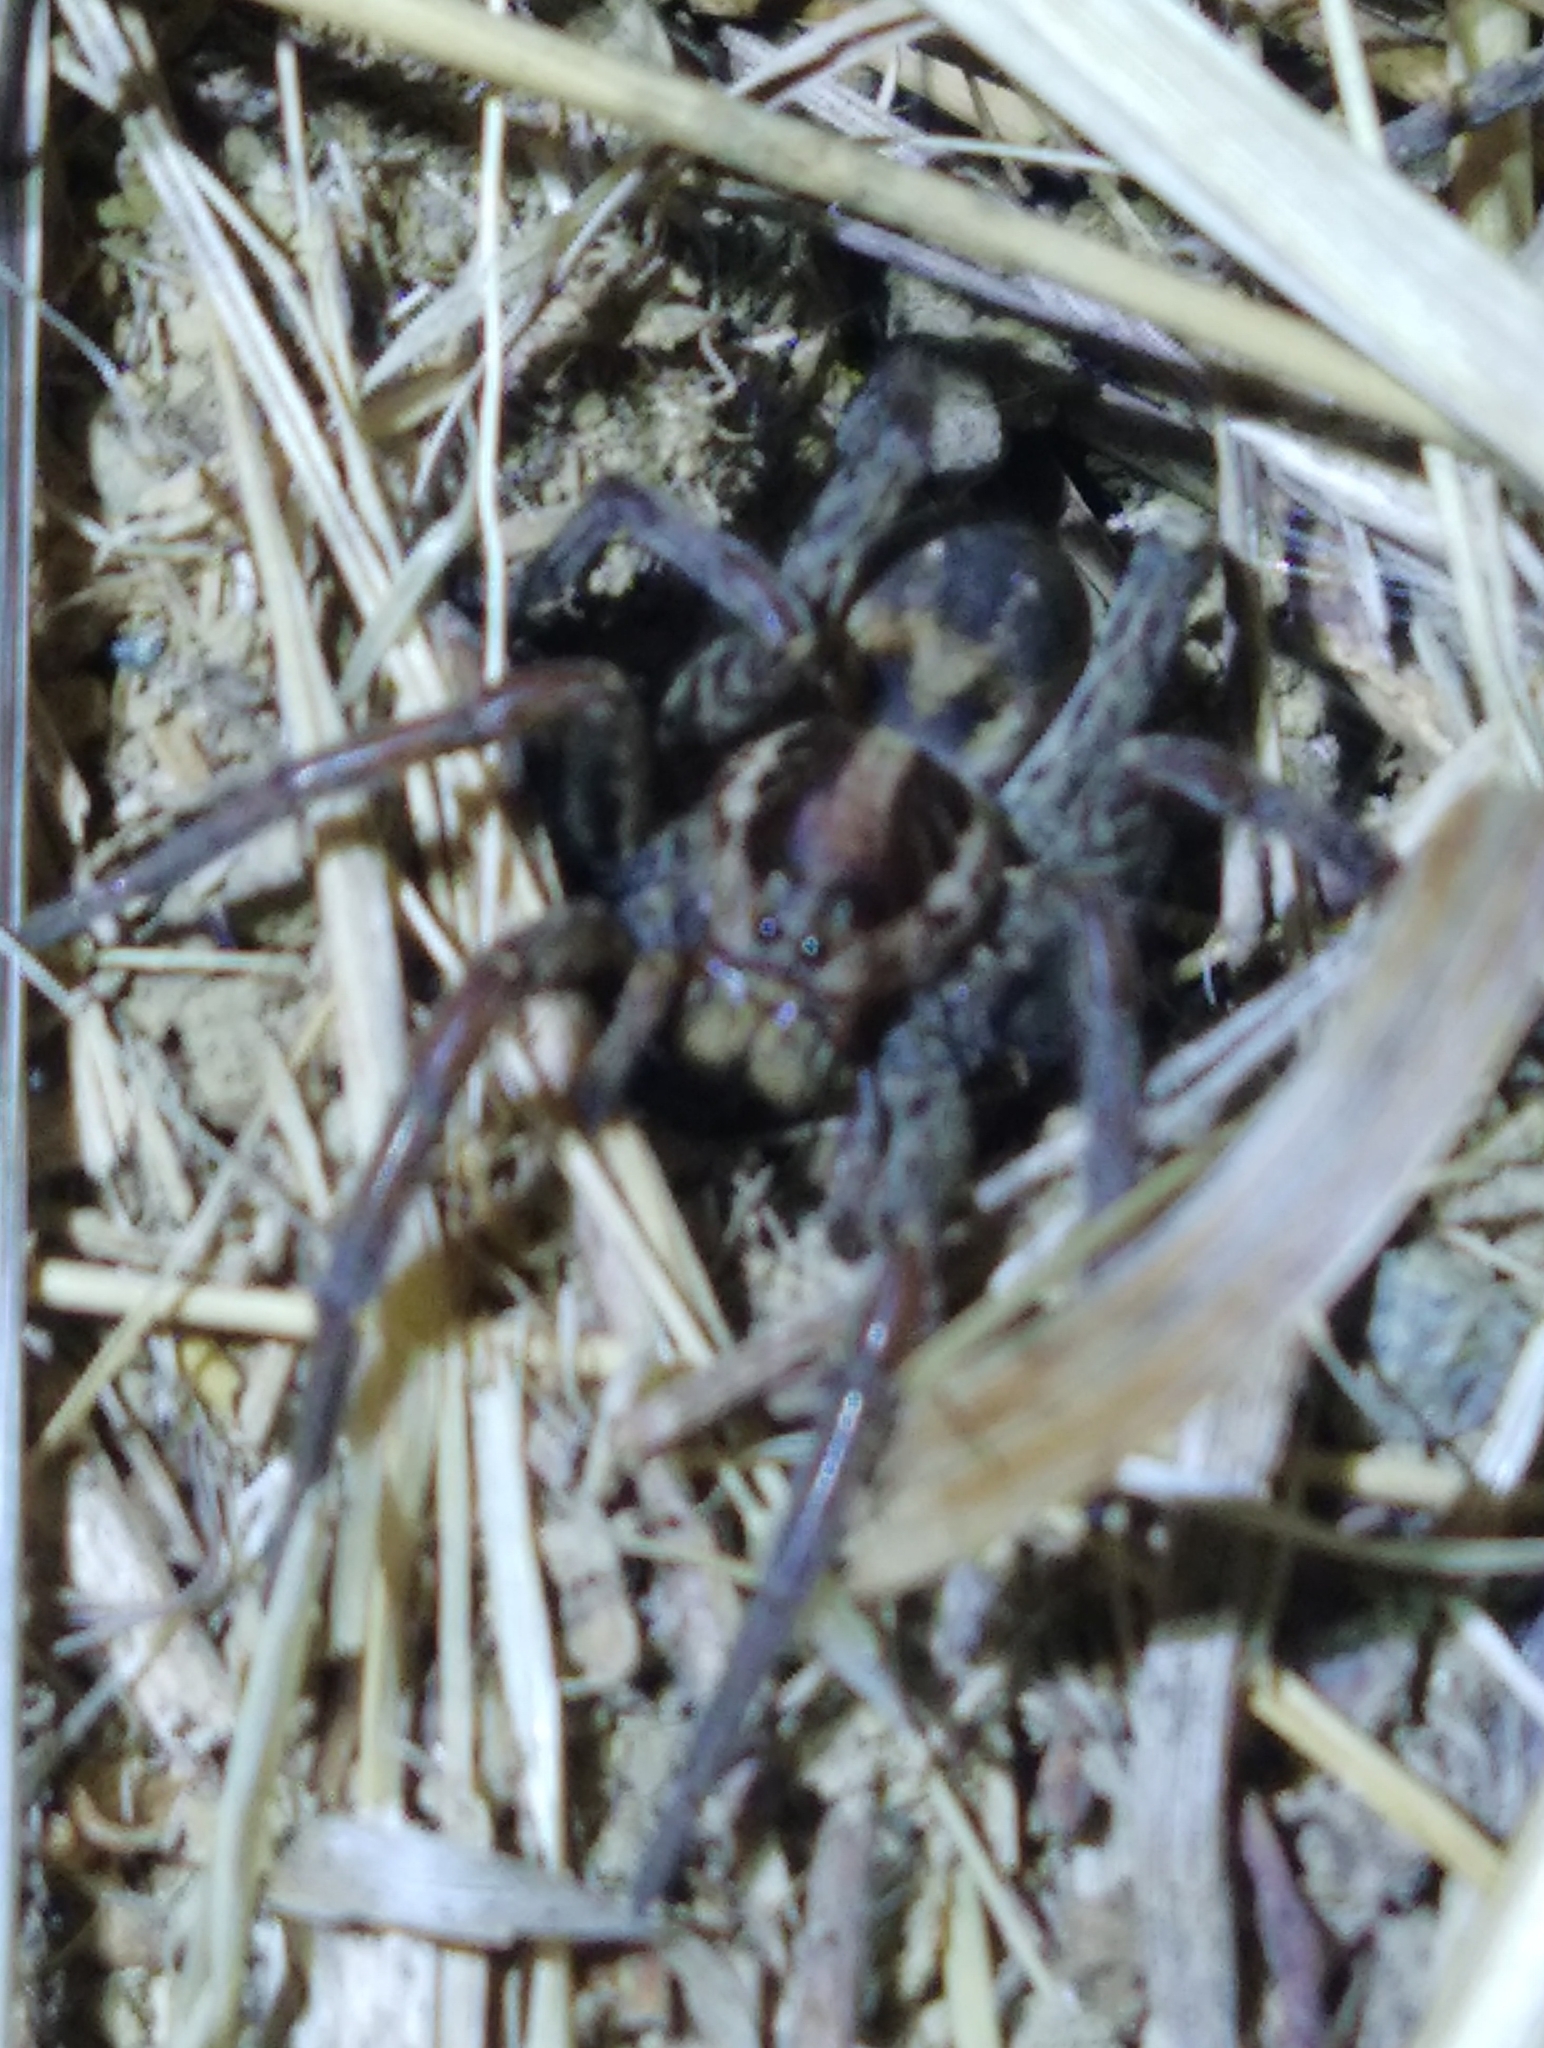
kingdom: Animalia
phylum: Arthropoda
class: Arachnida
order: Araneae
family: Lycosidae
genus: Hogna
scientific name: Hogna radiata
